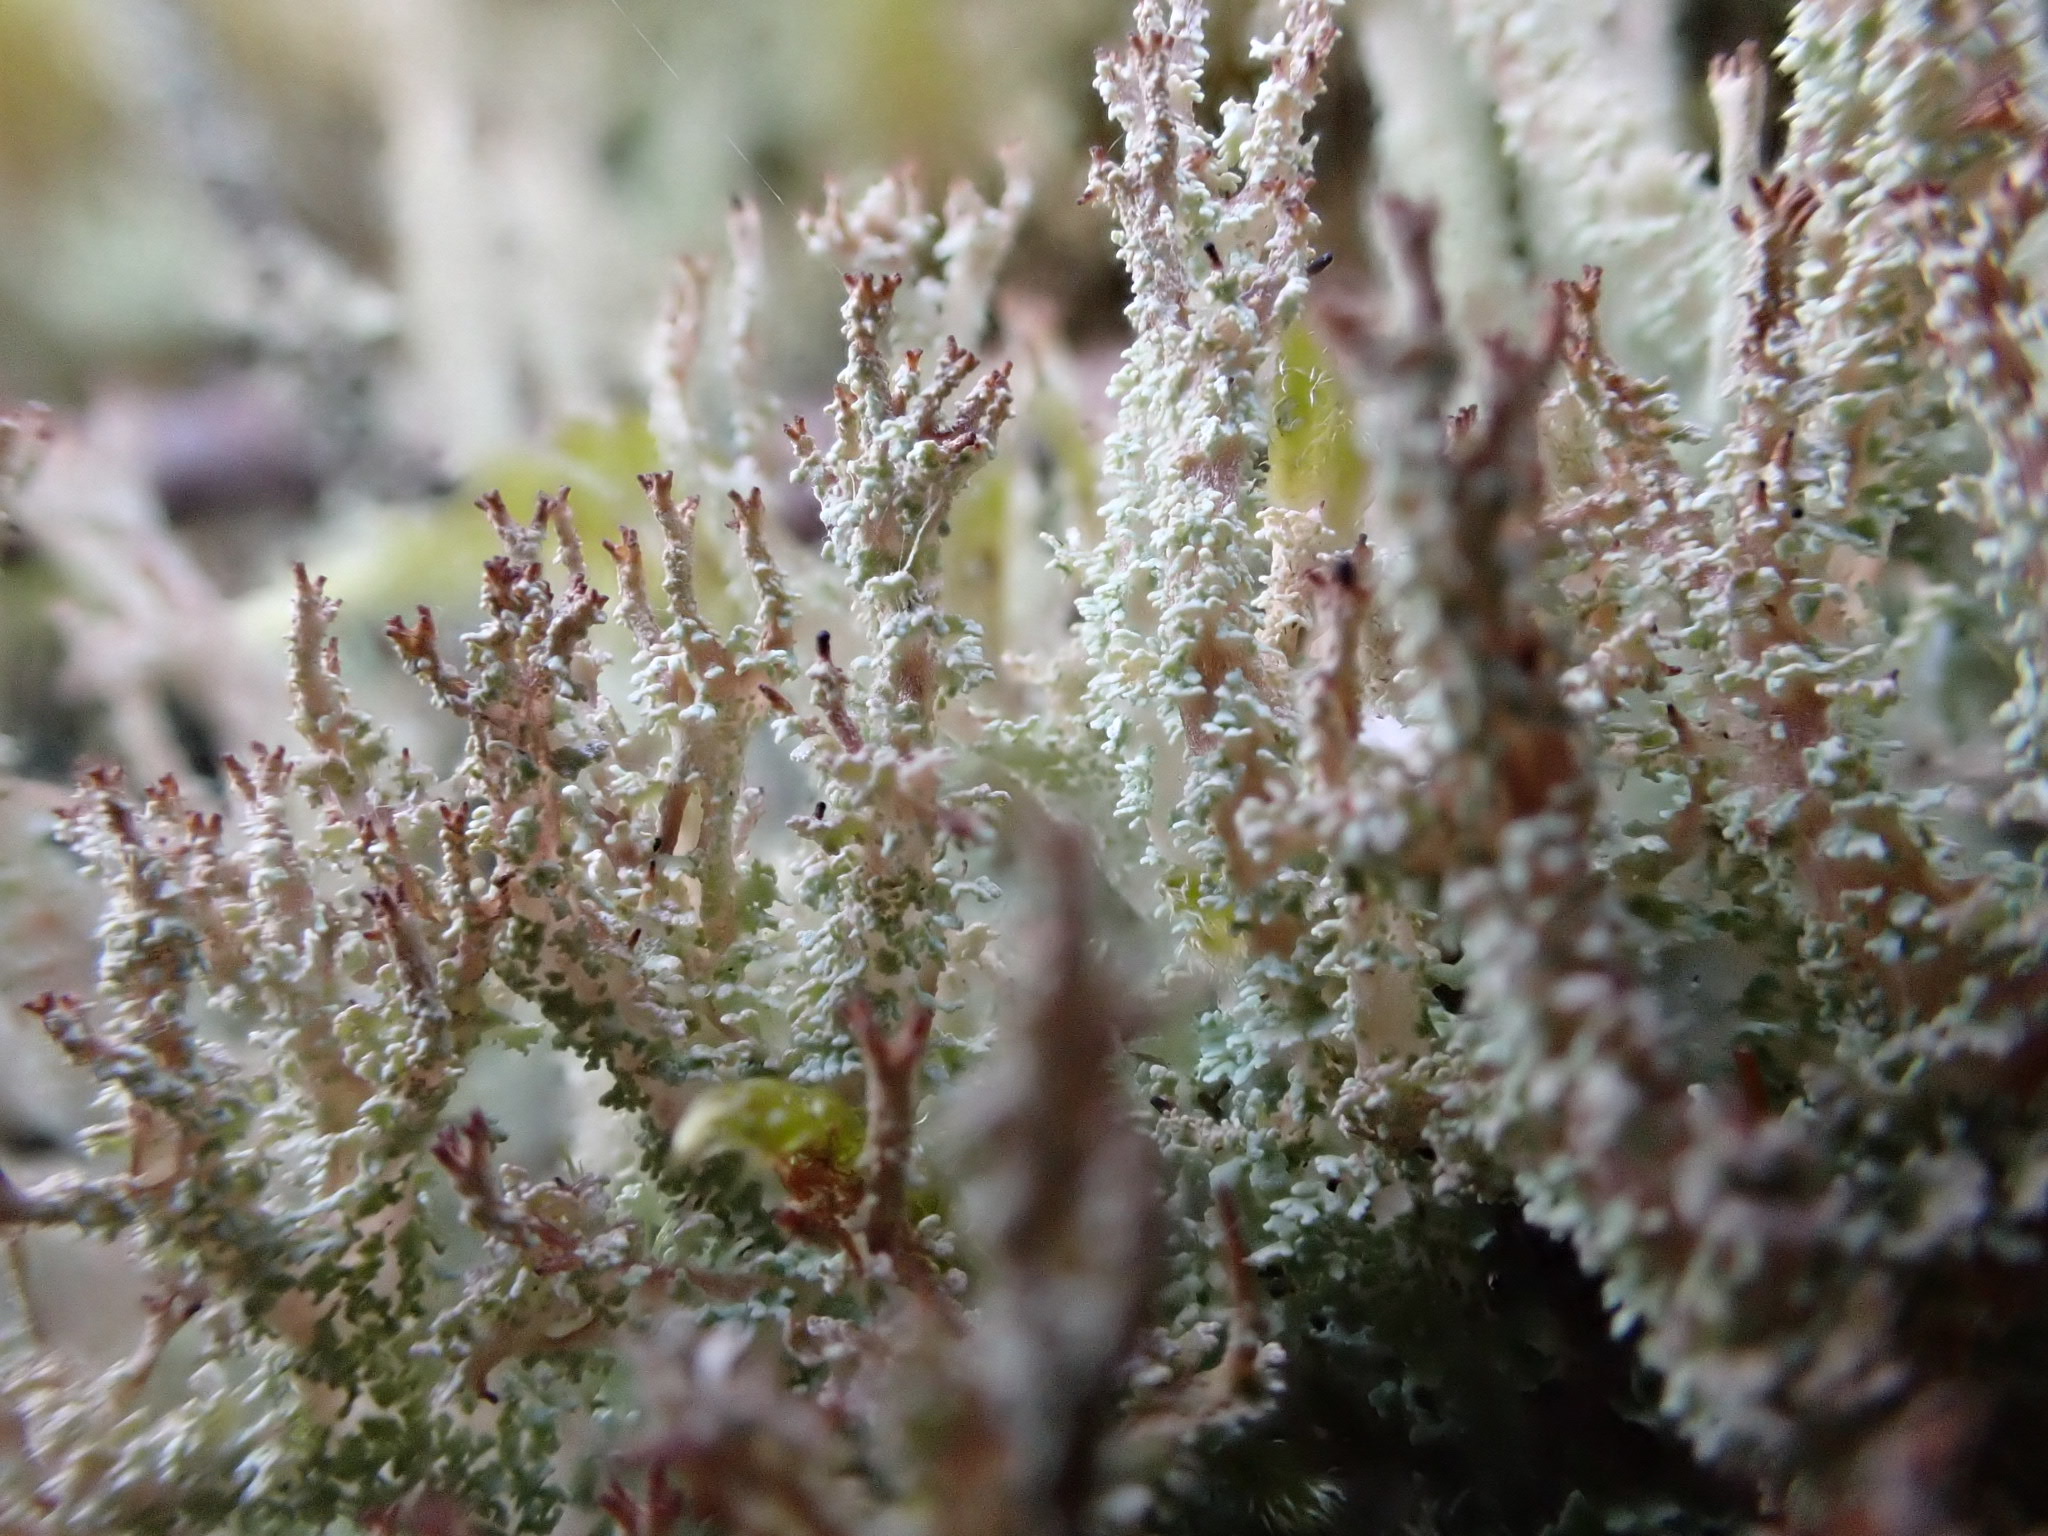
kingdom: Fungi
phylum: Ascomycota
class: Lecanoromycetes
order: Lecanorales
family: Cladoniaceae
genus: Cladonia
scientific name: Cladonia squamosa
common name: Dragon horn
